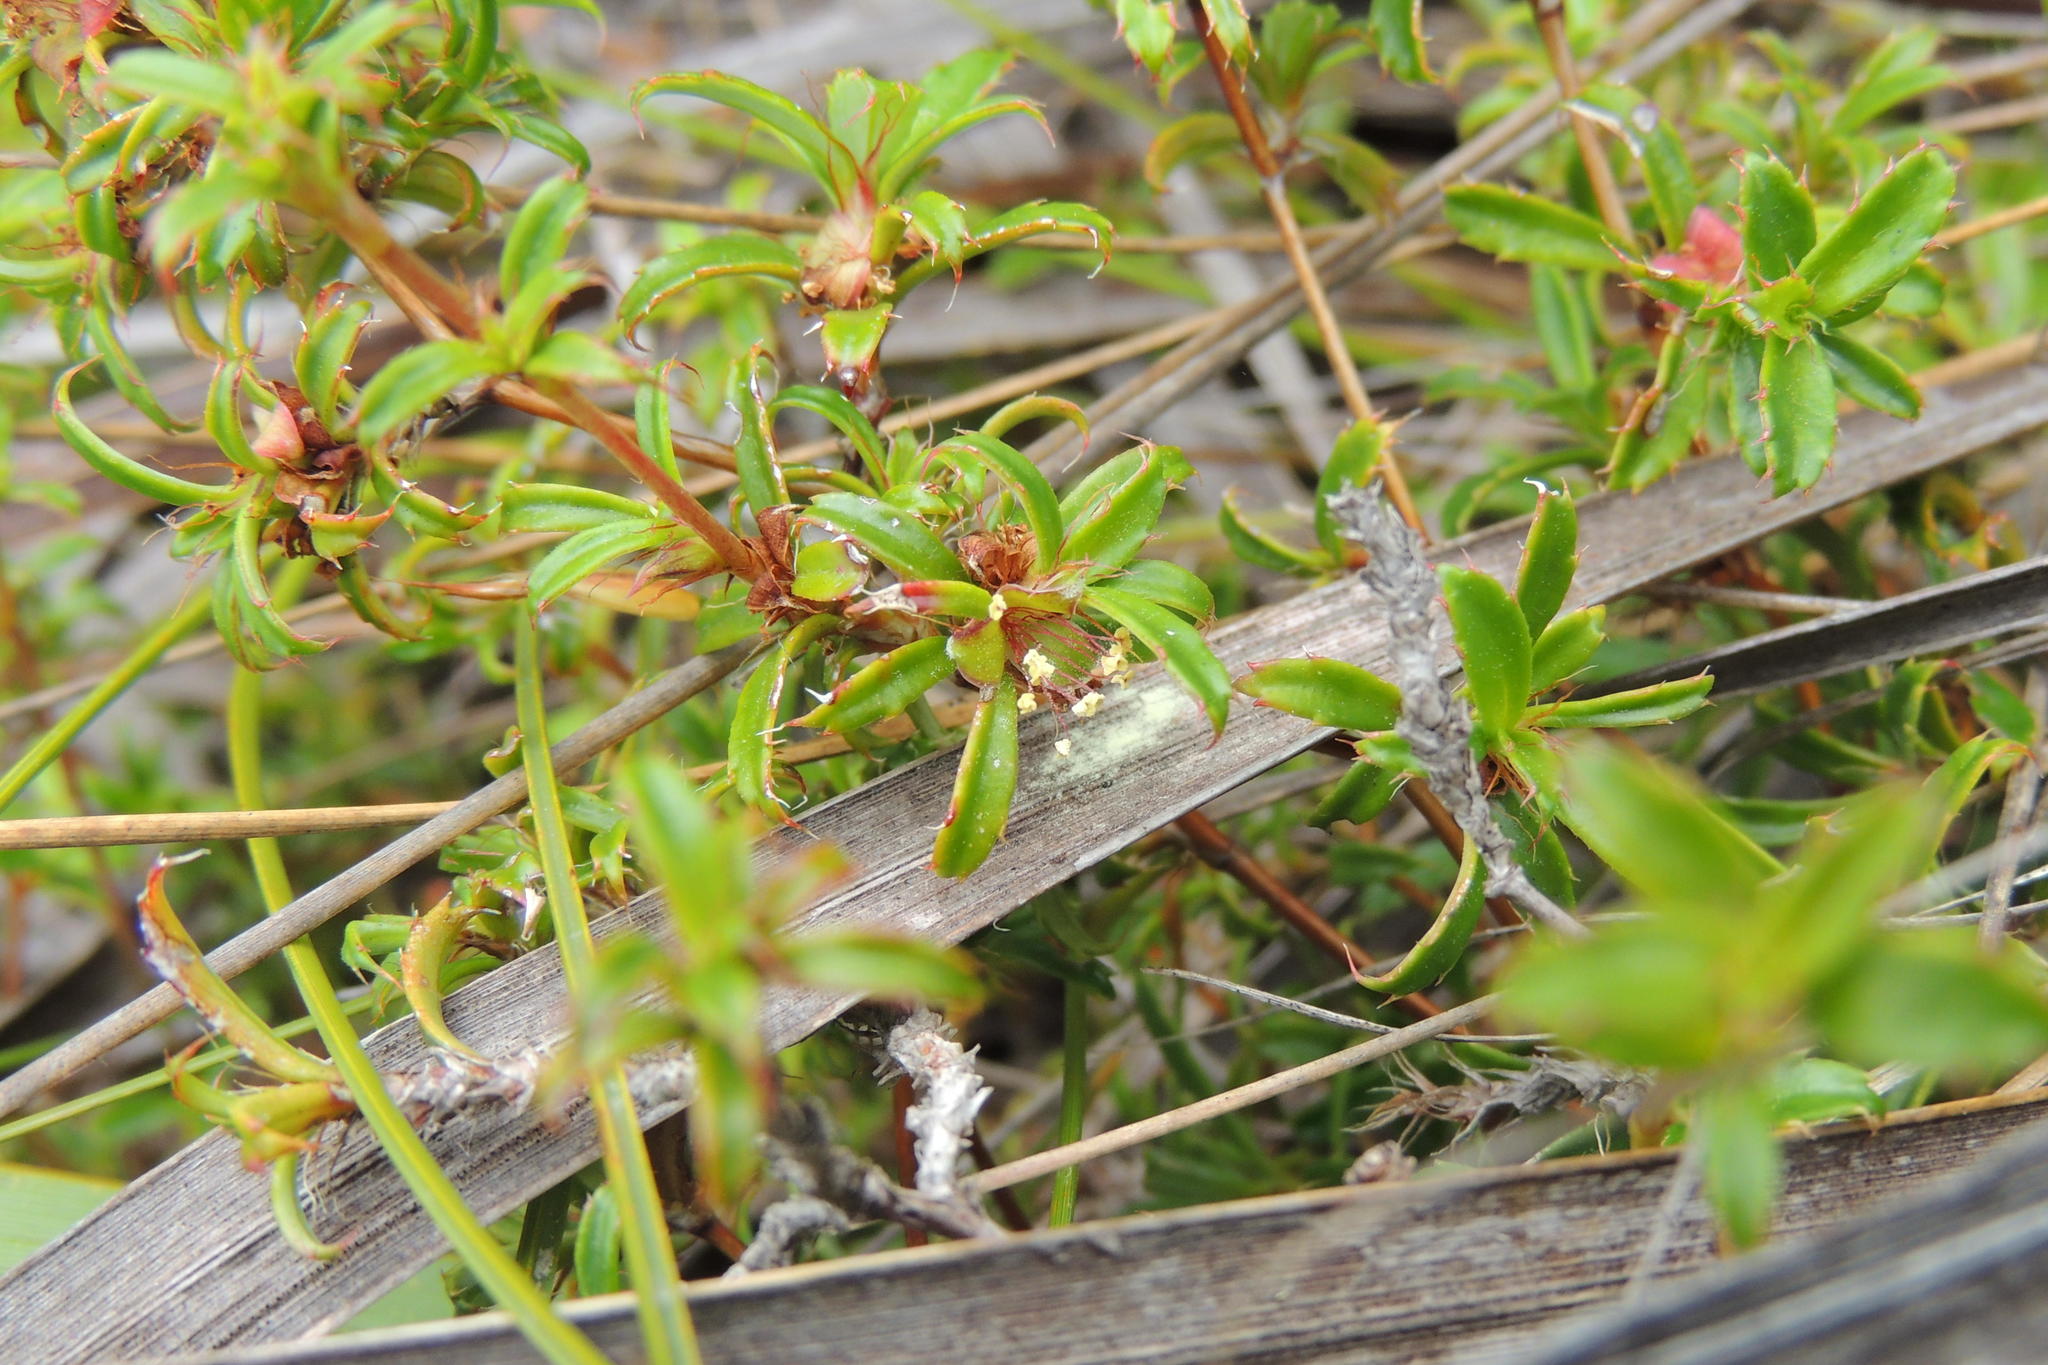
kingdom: Plantae
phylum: Tracheophyta
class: Magnoliopsida
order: Rosales
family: Rosaceae
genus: Cliffortia
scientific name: Cliffortia ferruginea
